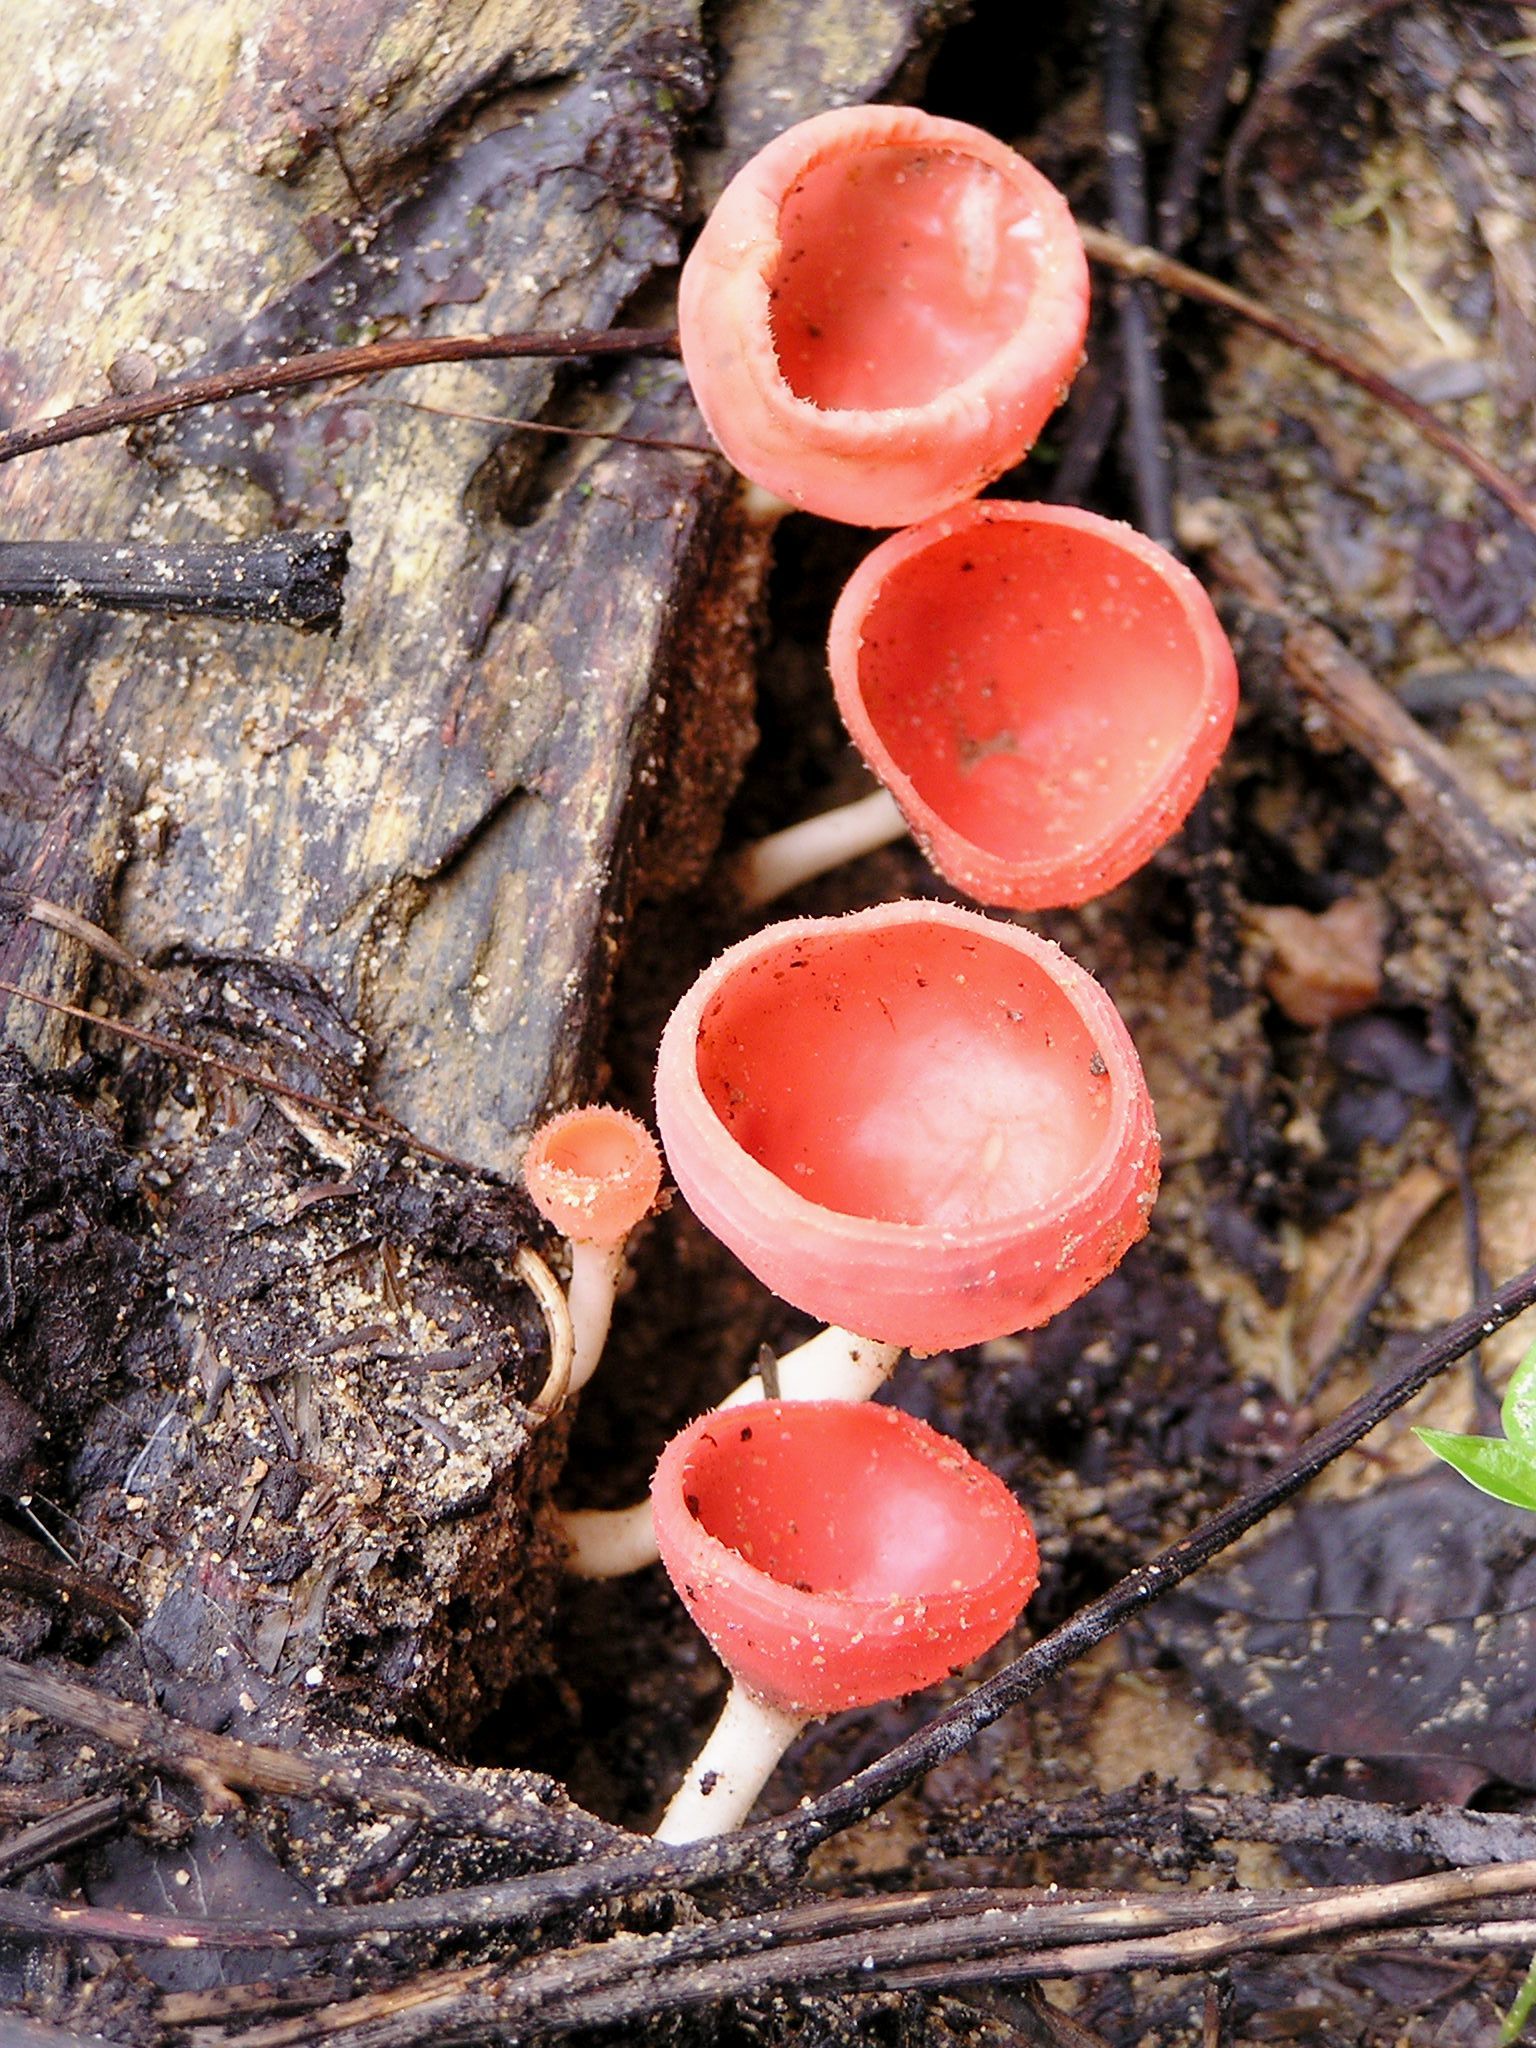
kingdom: Fungi
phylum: Ascomycota
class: Pezizomycetes
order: Pezizales
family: Sarcoscyphaceae
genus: Cookeina
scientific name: Cookeina speciosa
